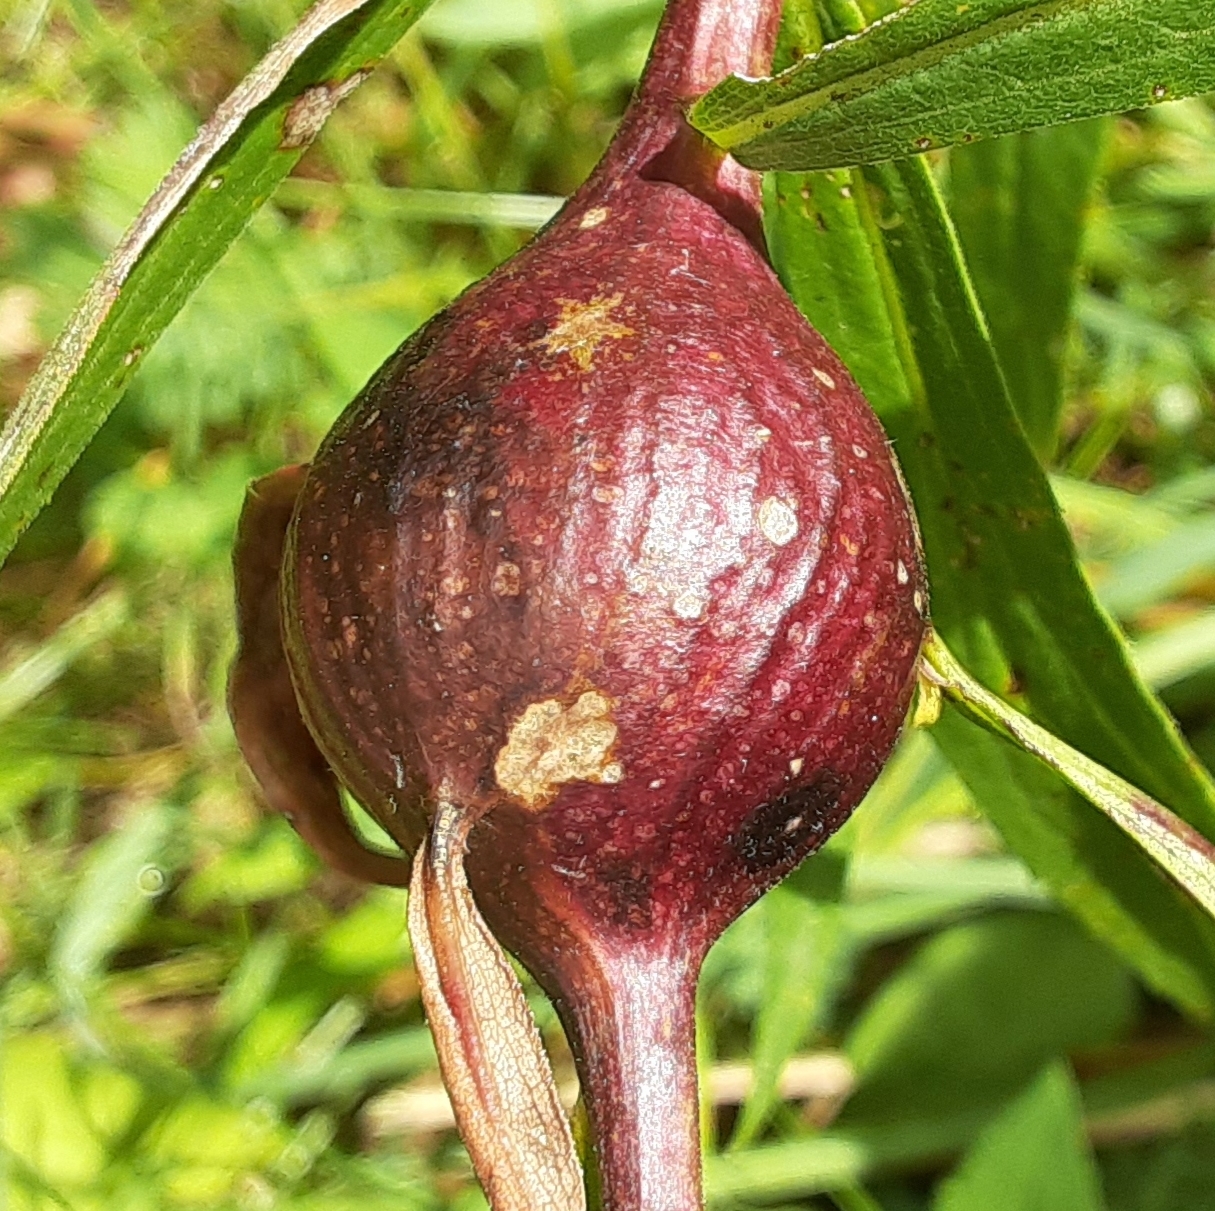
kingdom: Animalia
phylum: Arthropoda
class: Insecta
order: Diptera
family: Tephritidae
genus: Eurosta
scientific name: Eurosta solidaginis
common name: Goldenrod gall fly
